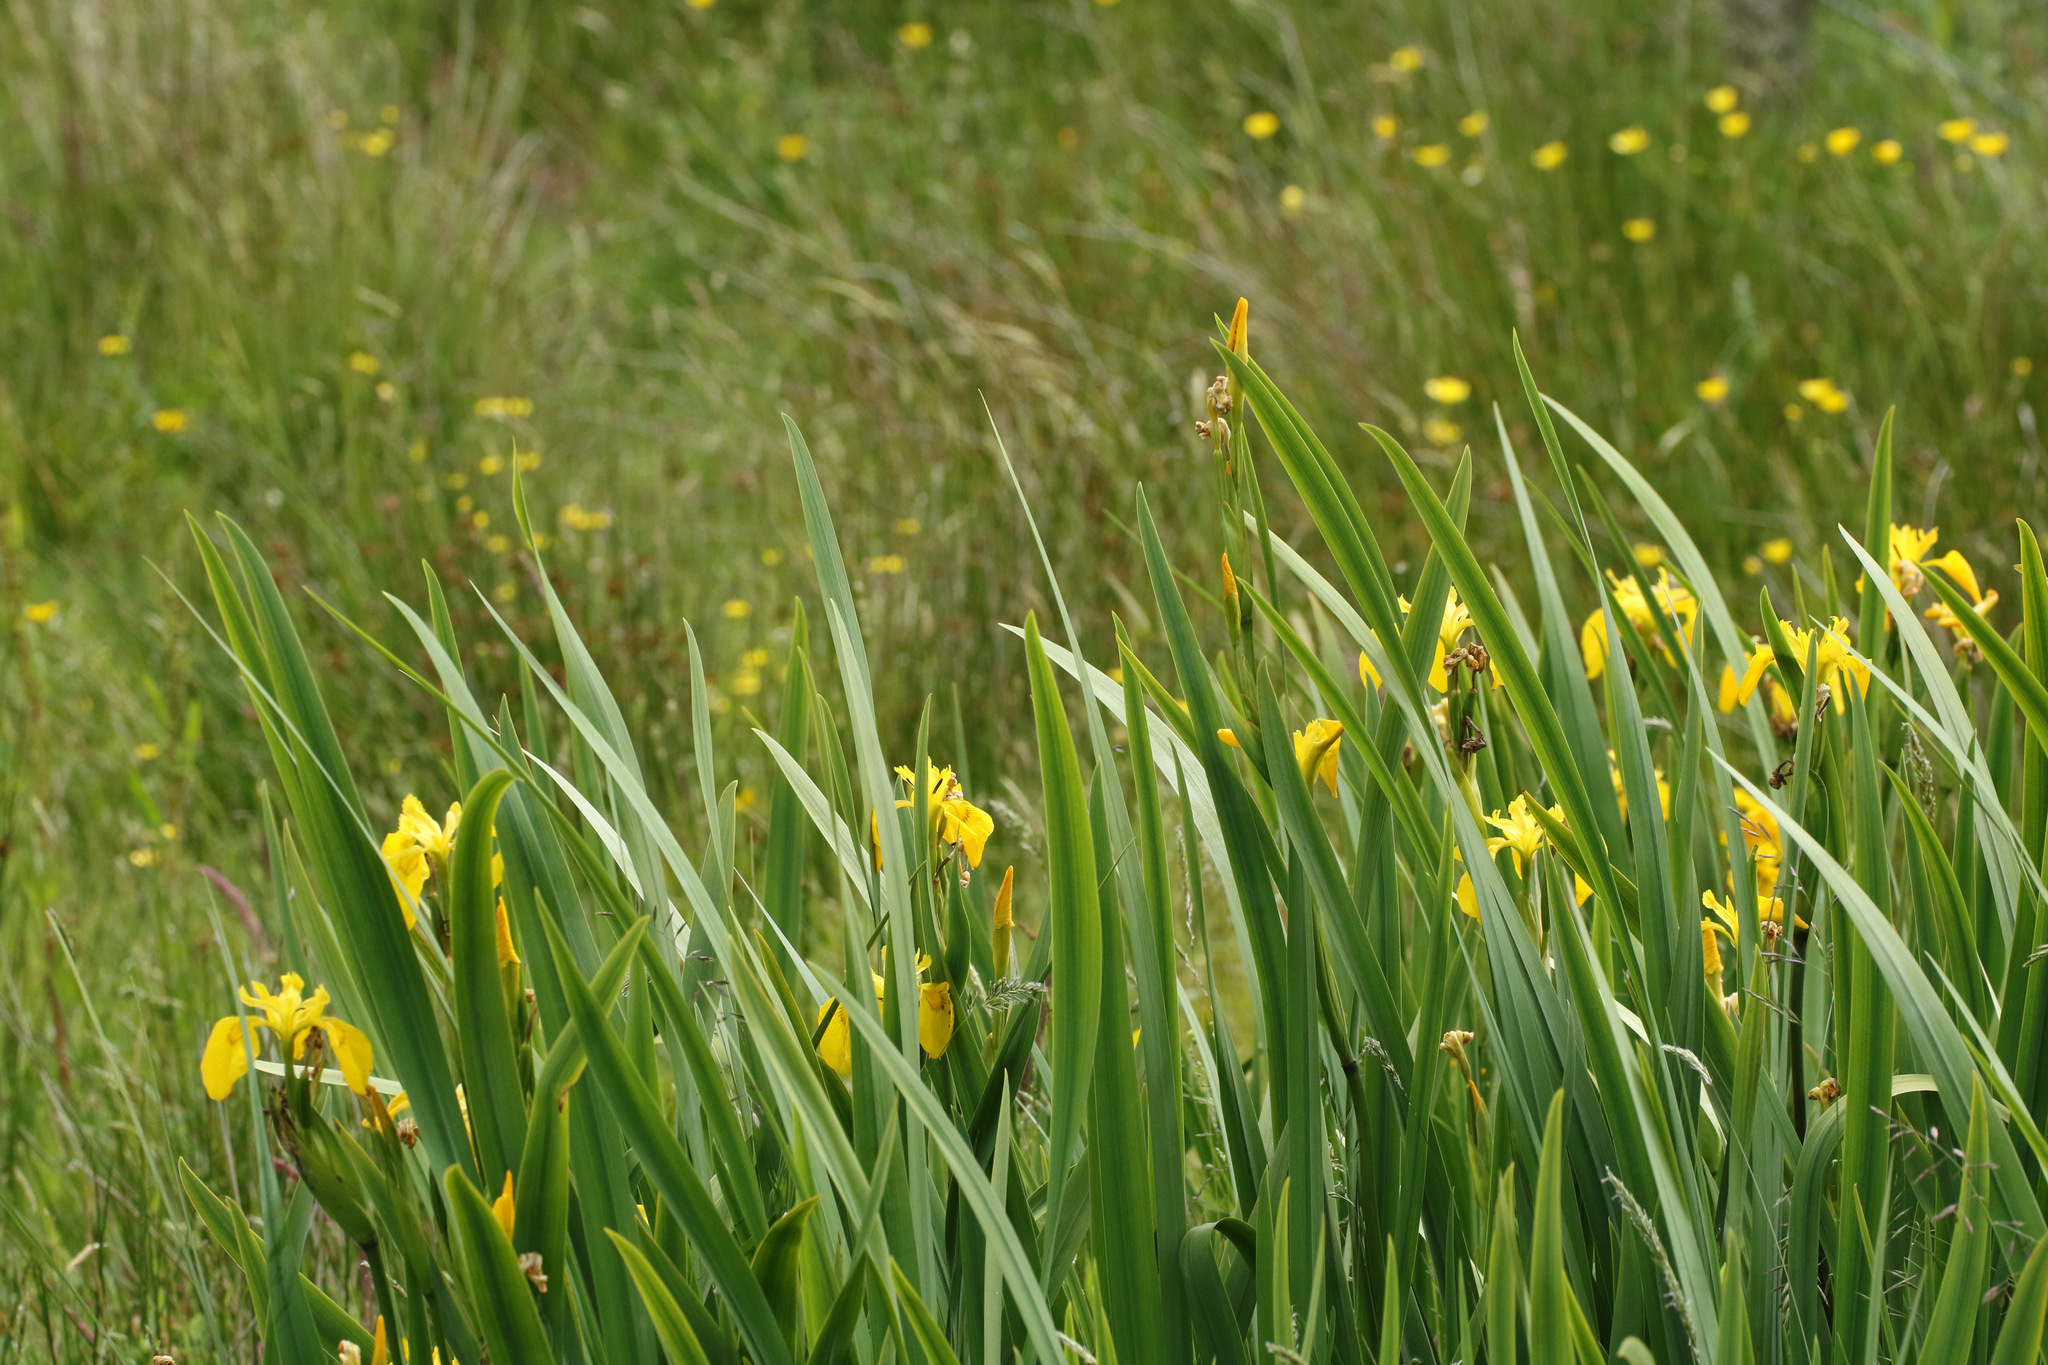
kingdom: Plantae
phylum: Tracheophyta
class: Liliopsida
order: Asparagales
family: Iridaceae
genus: Iris
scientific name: Iris pseudacorus
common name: Yellow flag
